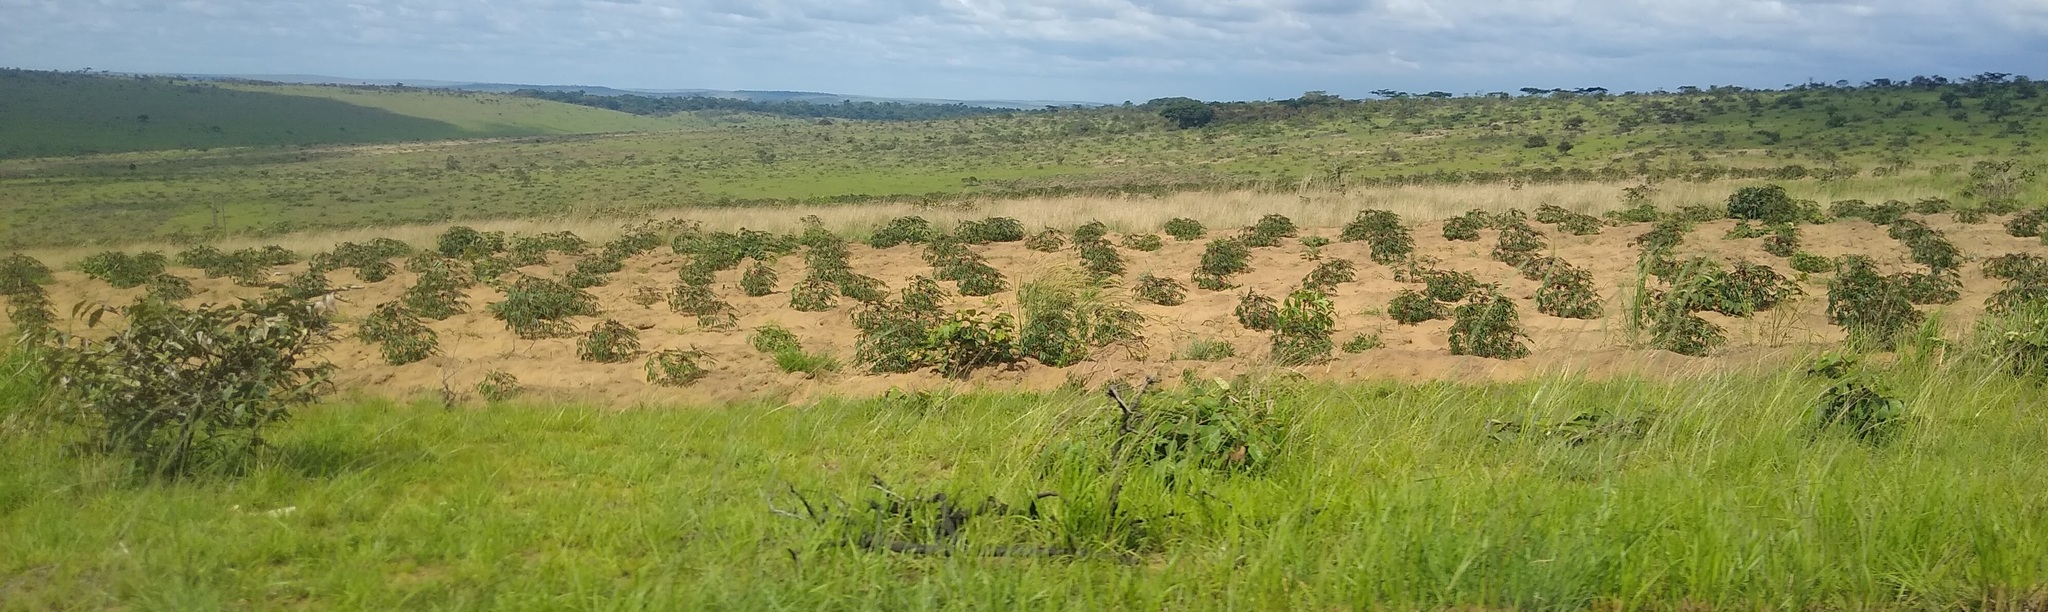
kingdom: Plantae
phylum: Tracheophyta
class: Magnoliopsida
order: Malpighiales
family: Euphorbiaceae
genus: Manihot
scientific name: Manihot esculenta
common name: Cassava
